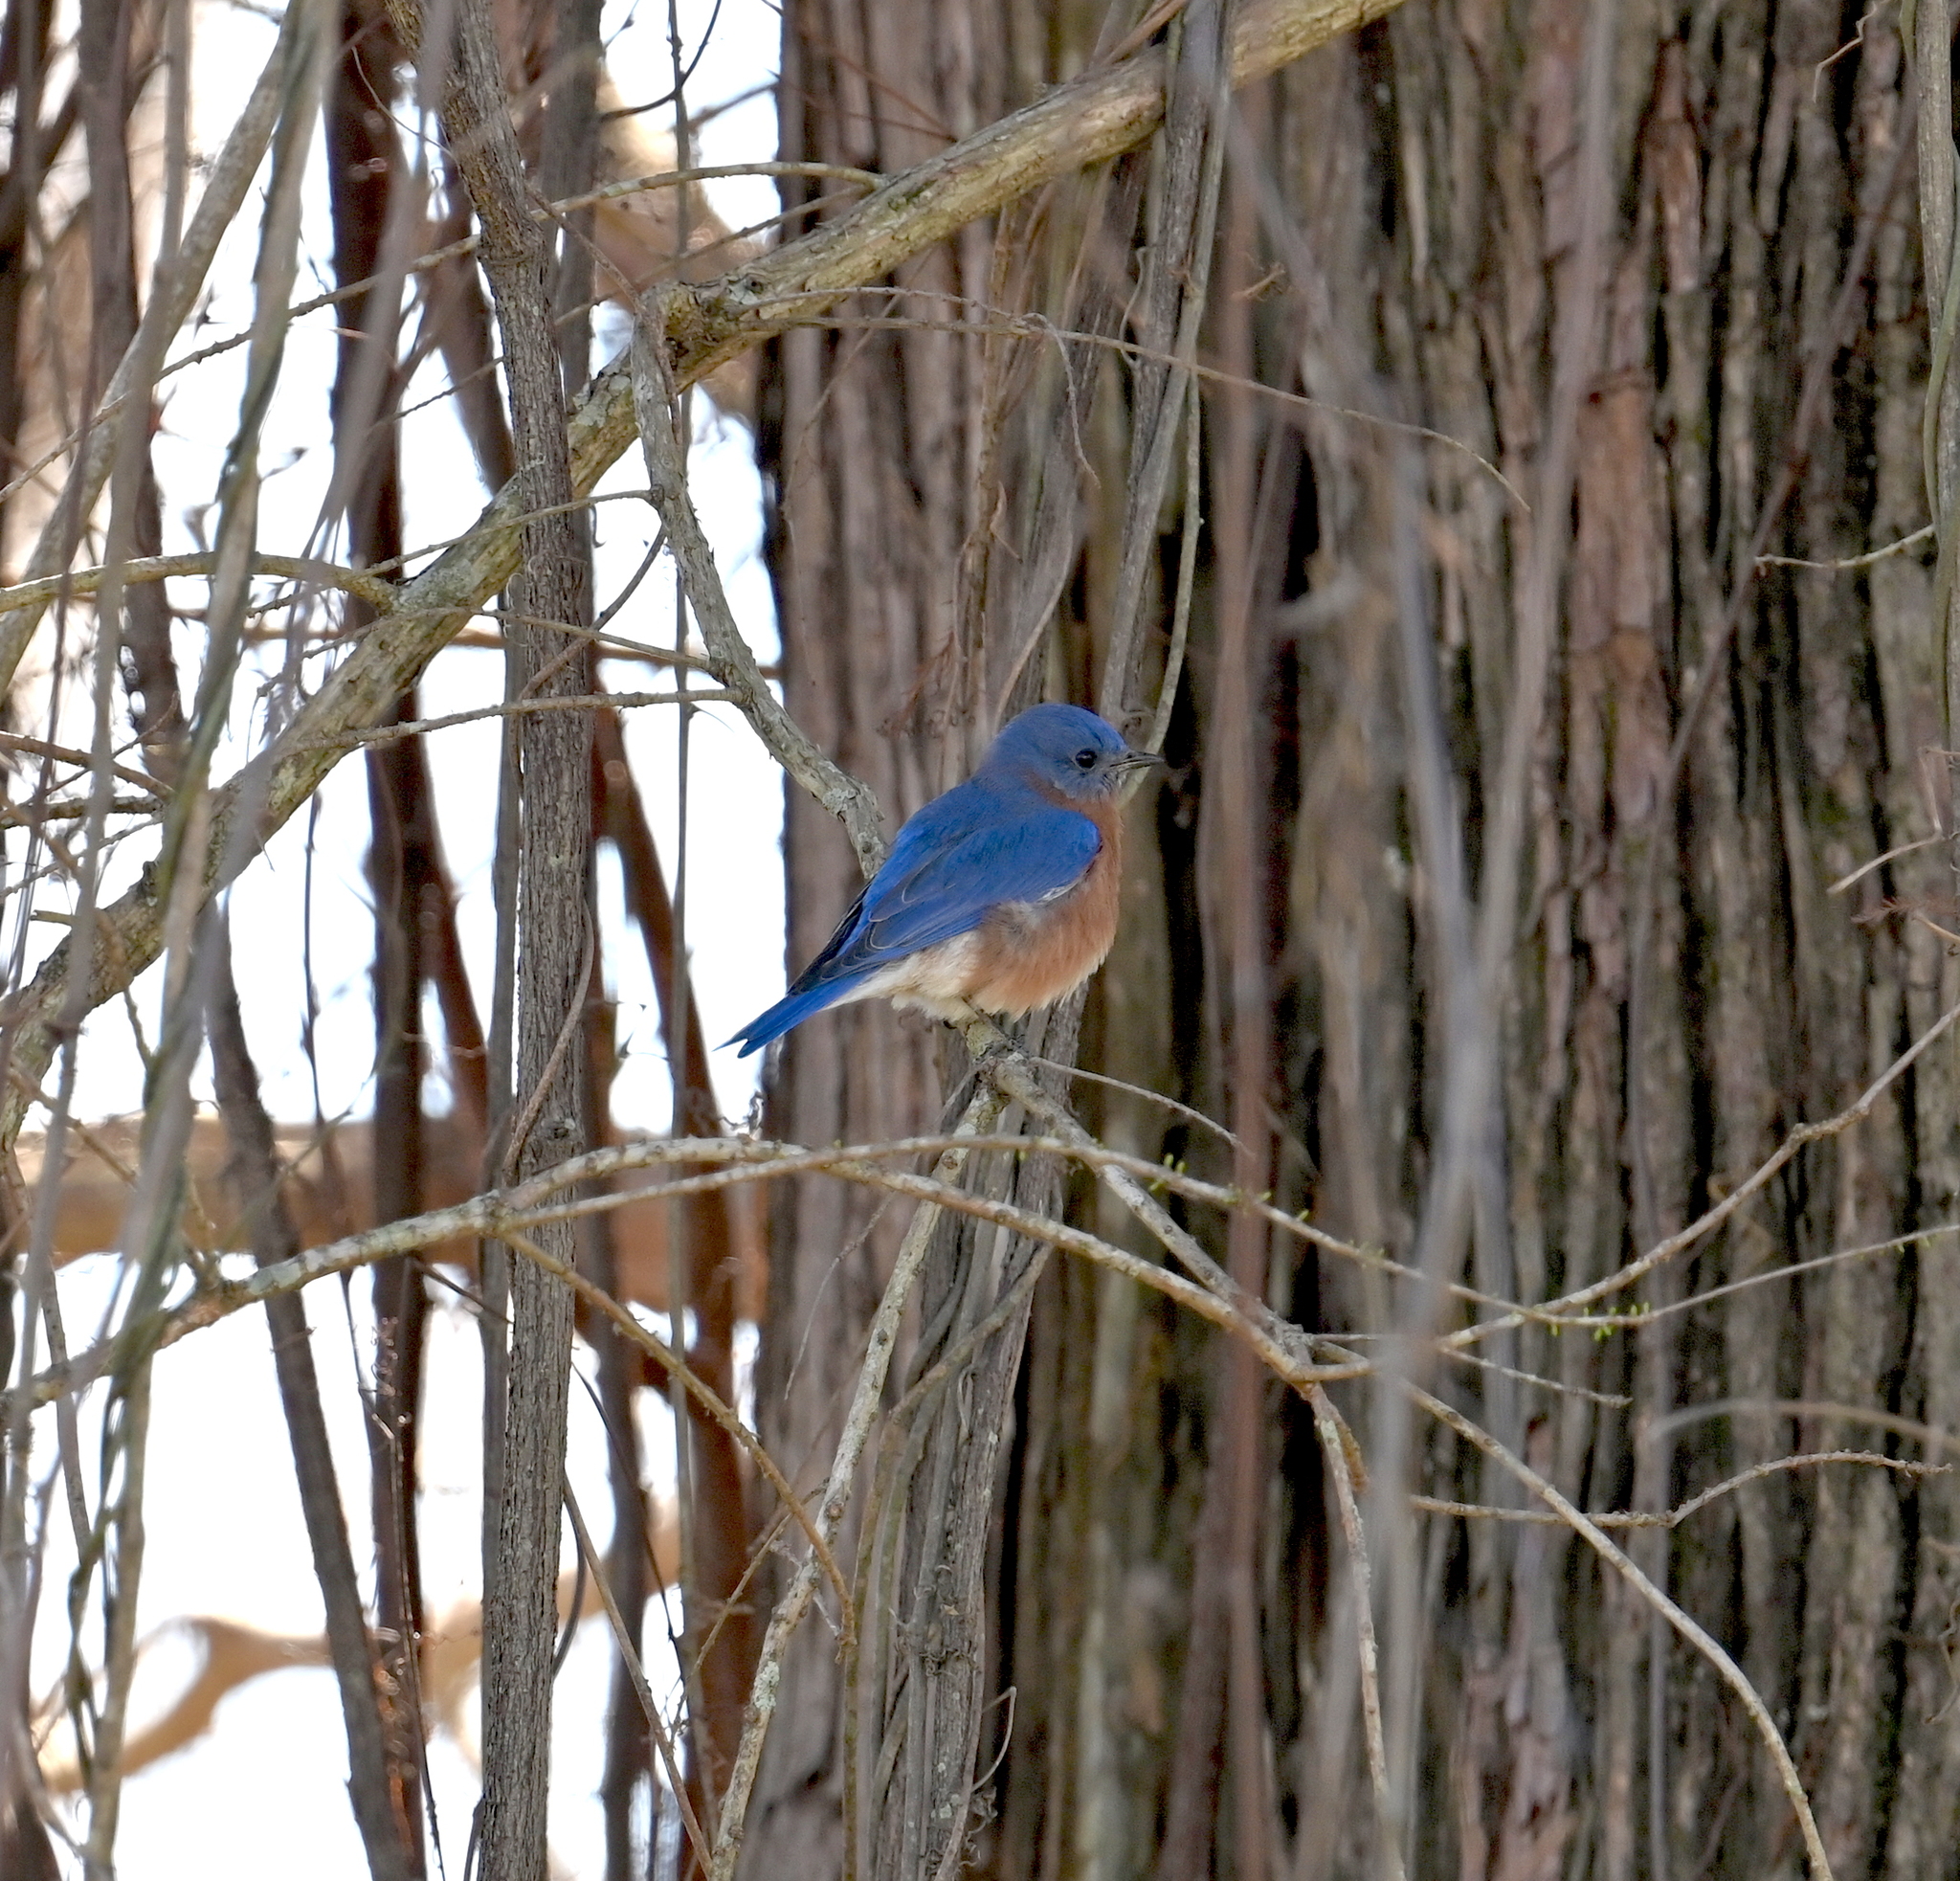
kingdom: Animalia
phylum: Chordata
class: Aves
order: Passeriformes
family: Turdidae
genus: Sialia
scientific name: Sialia sialis
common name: Eastern bluebird
